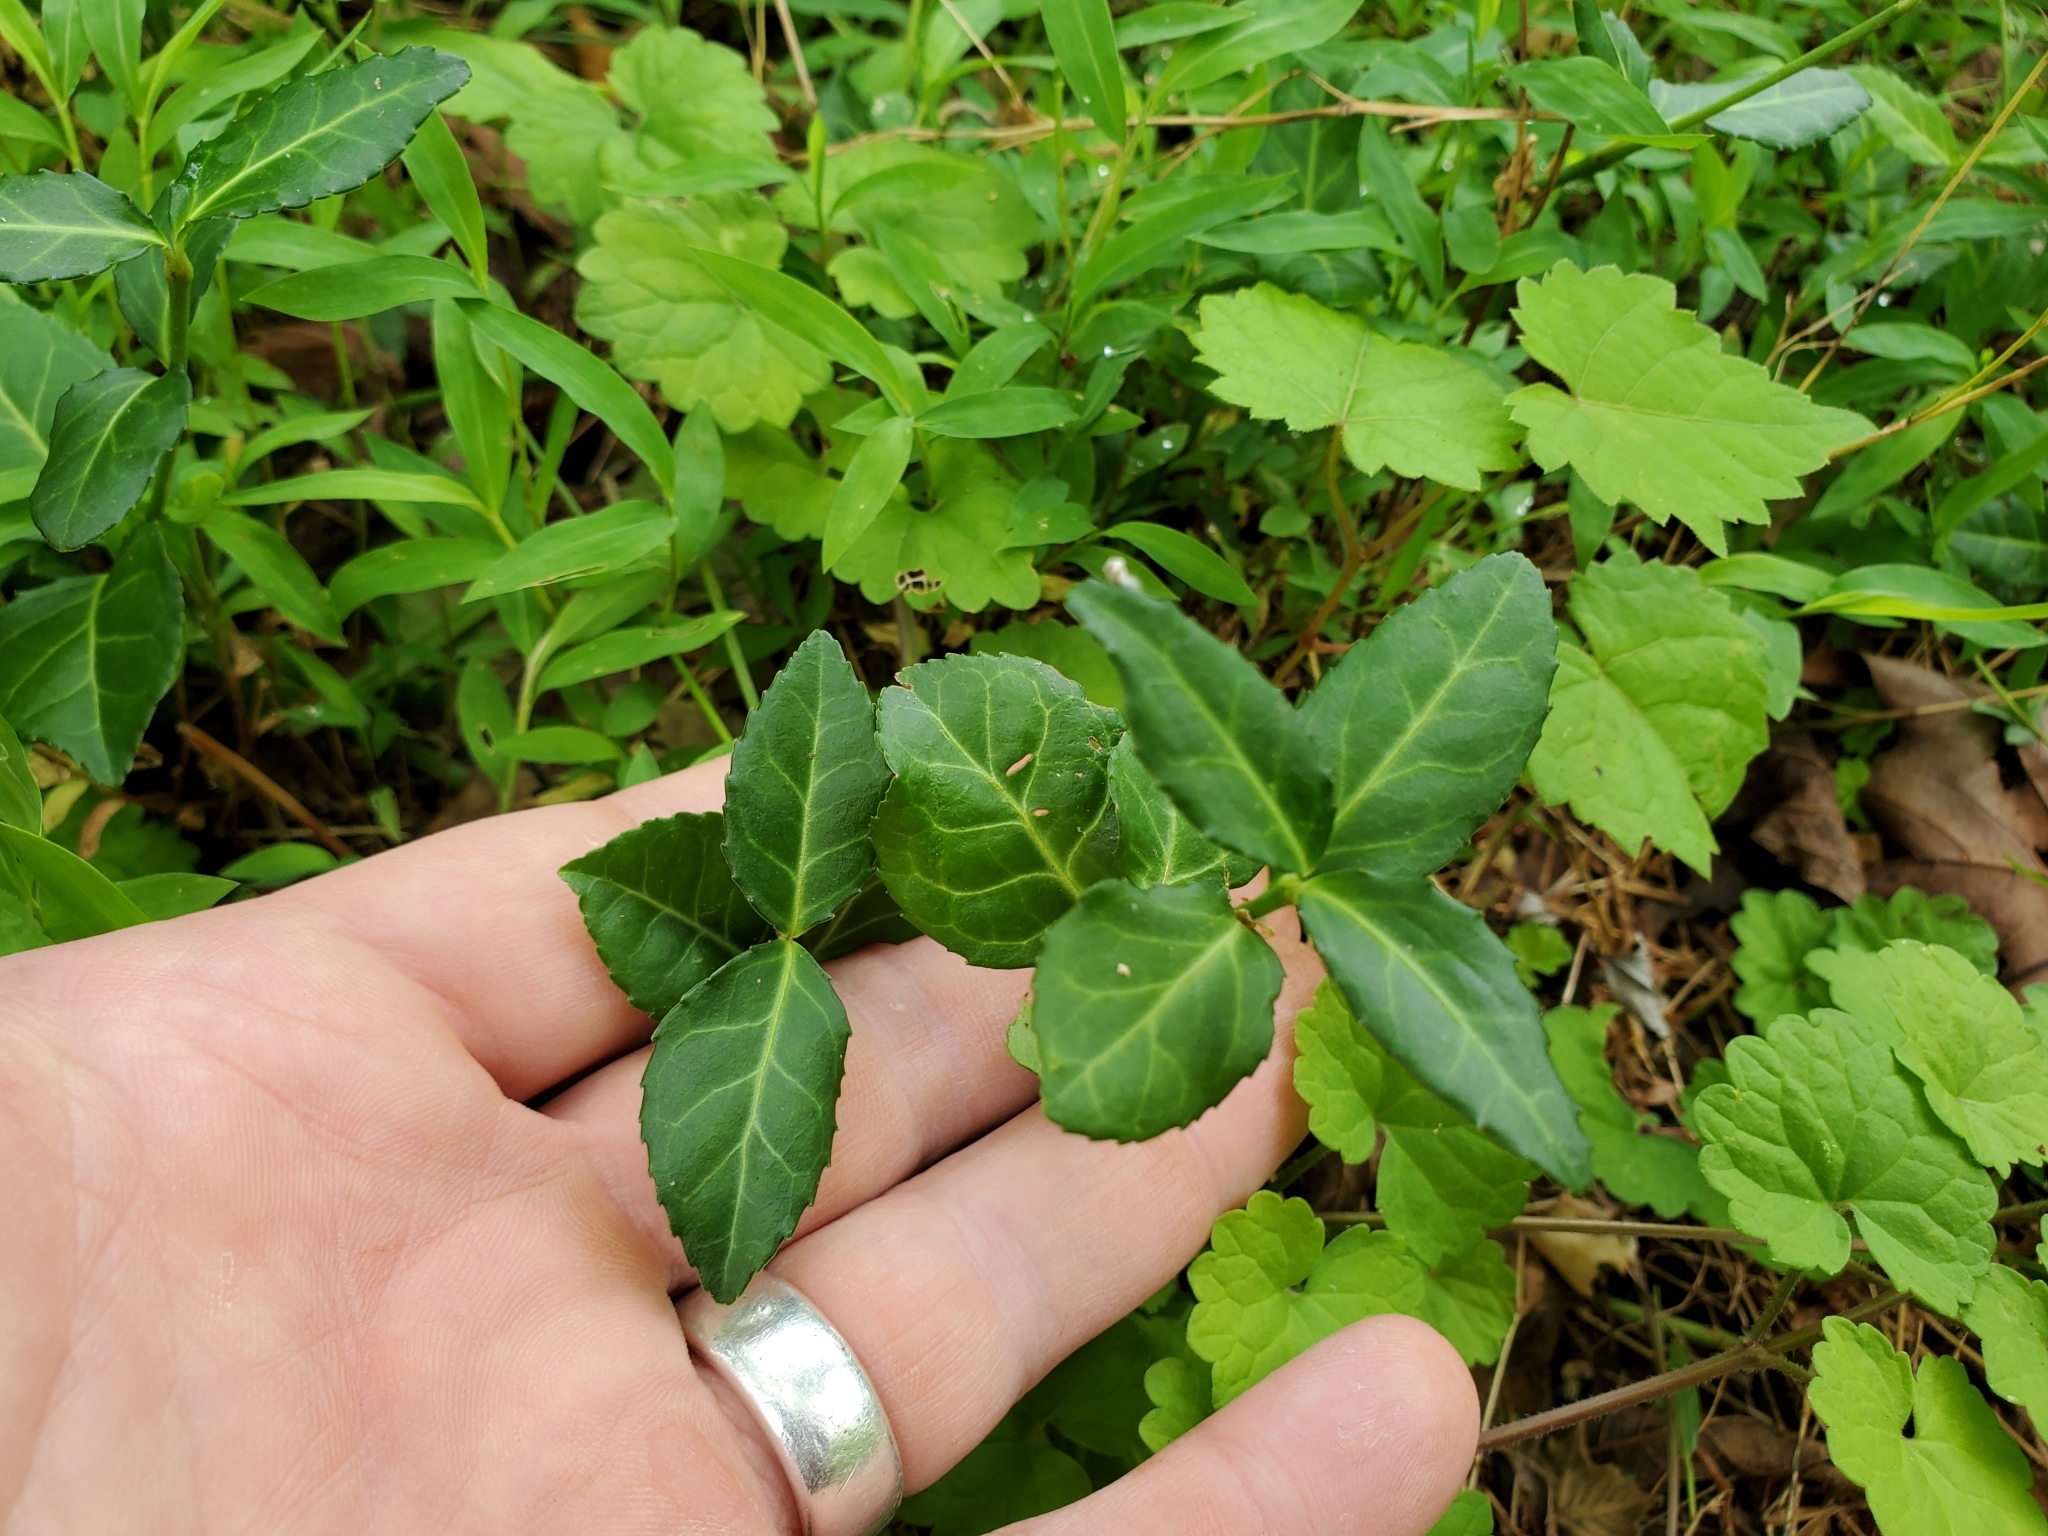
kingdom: Plantae
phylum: Tracheophyta
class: Magnoliopsida
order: Celastrales
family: Celastraceae
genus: Euonymus
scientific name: Euonymus fortunei
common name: Climbing euonymus
